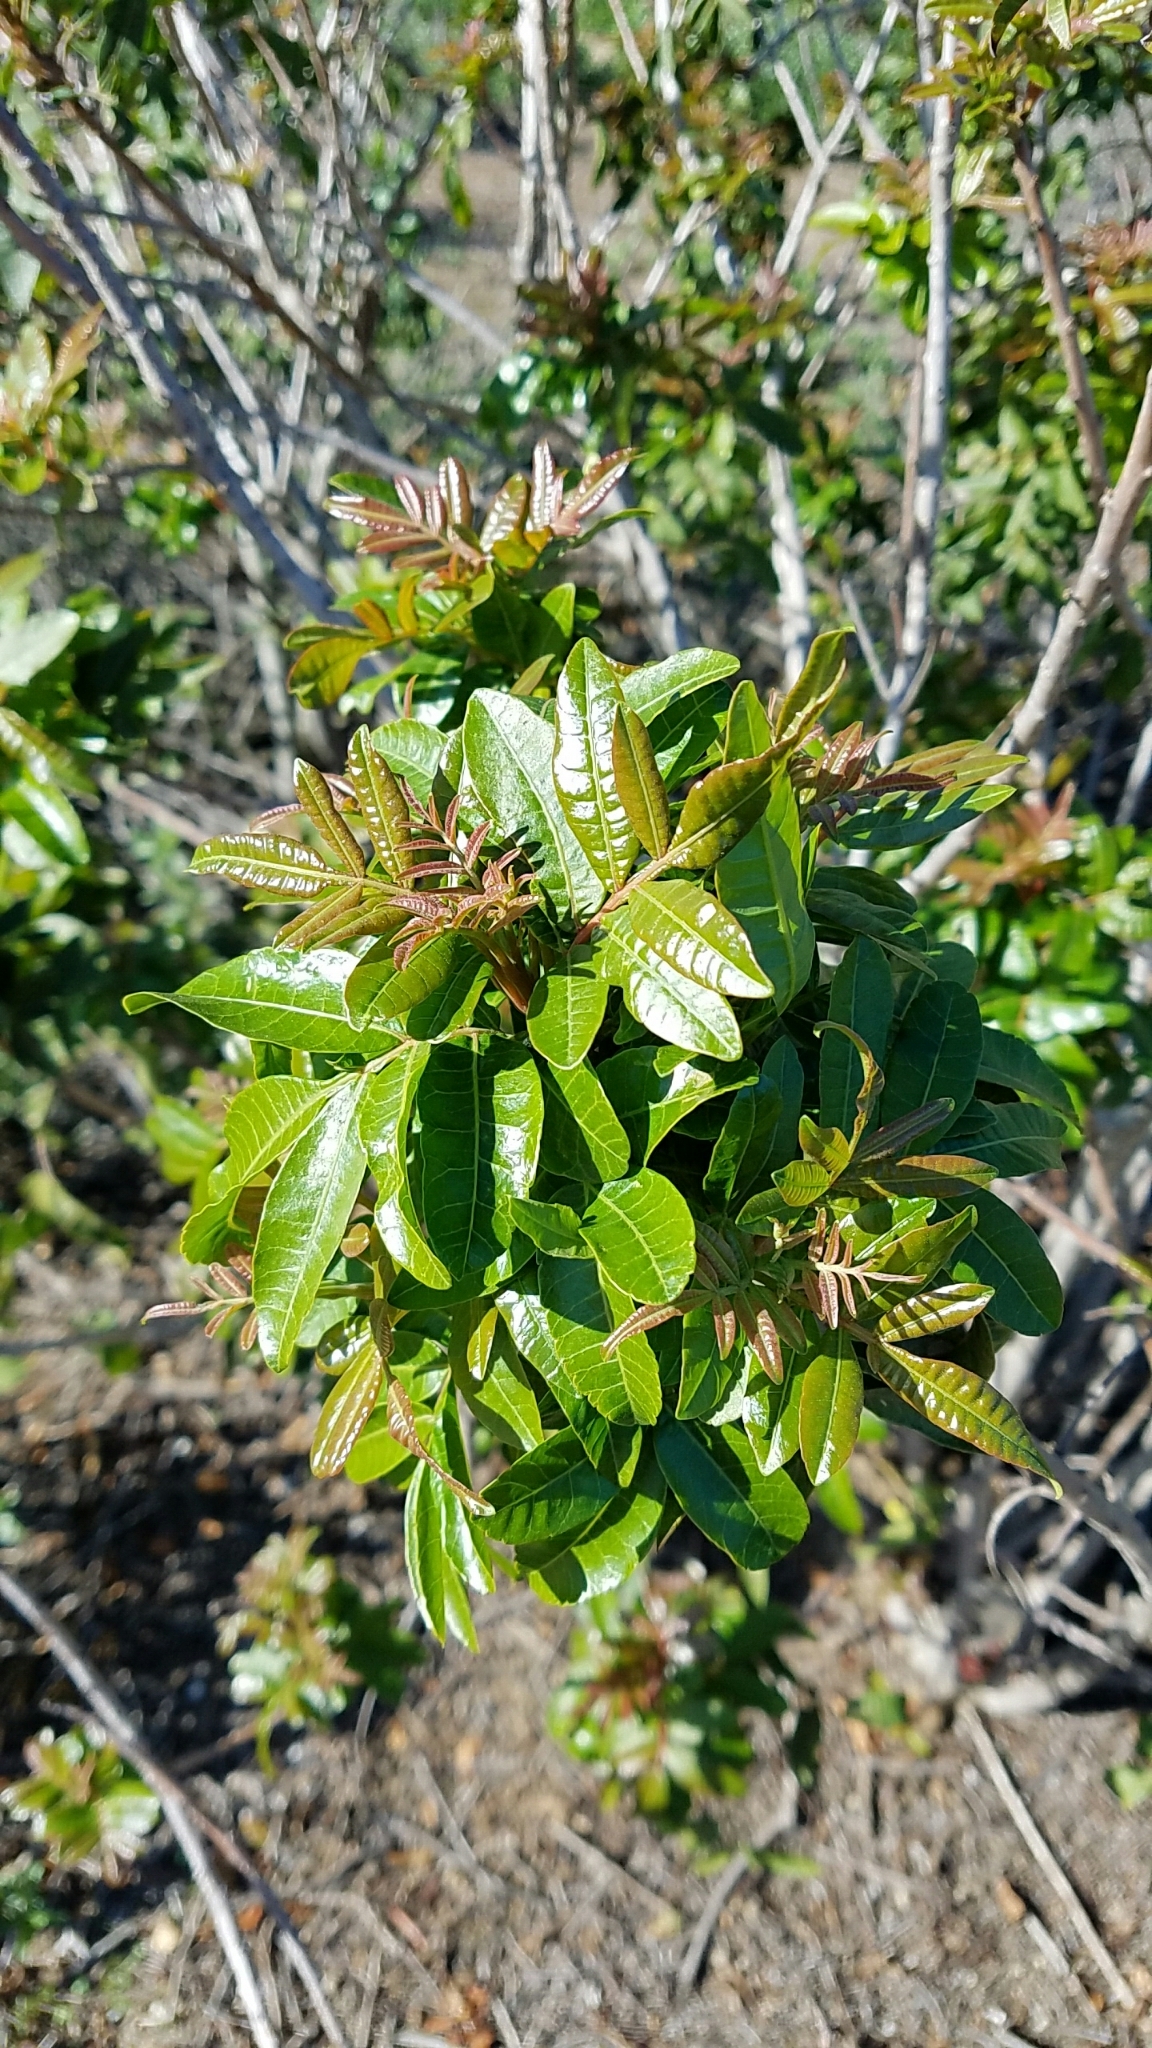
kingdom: Plantae
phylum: Tracheophyta
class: Magnoliopsida
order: Sapindales
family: Anacardiaceae
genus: Schinus
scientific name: Schinus terebinthifolia
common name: Brazilian peppertree
